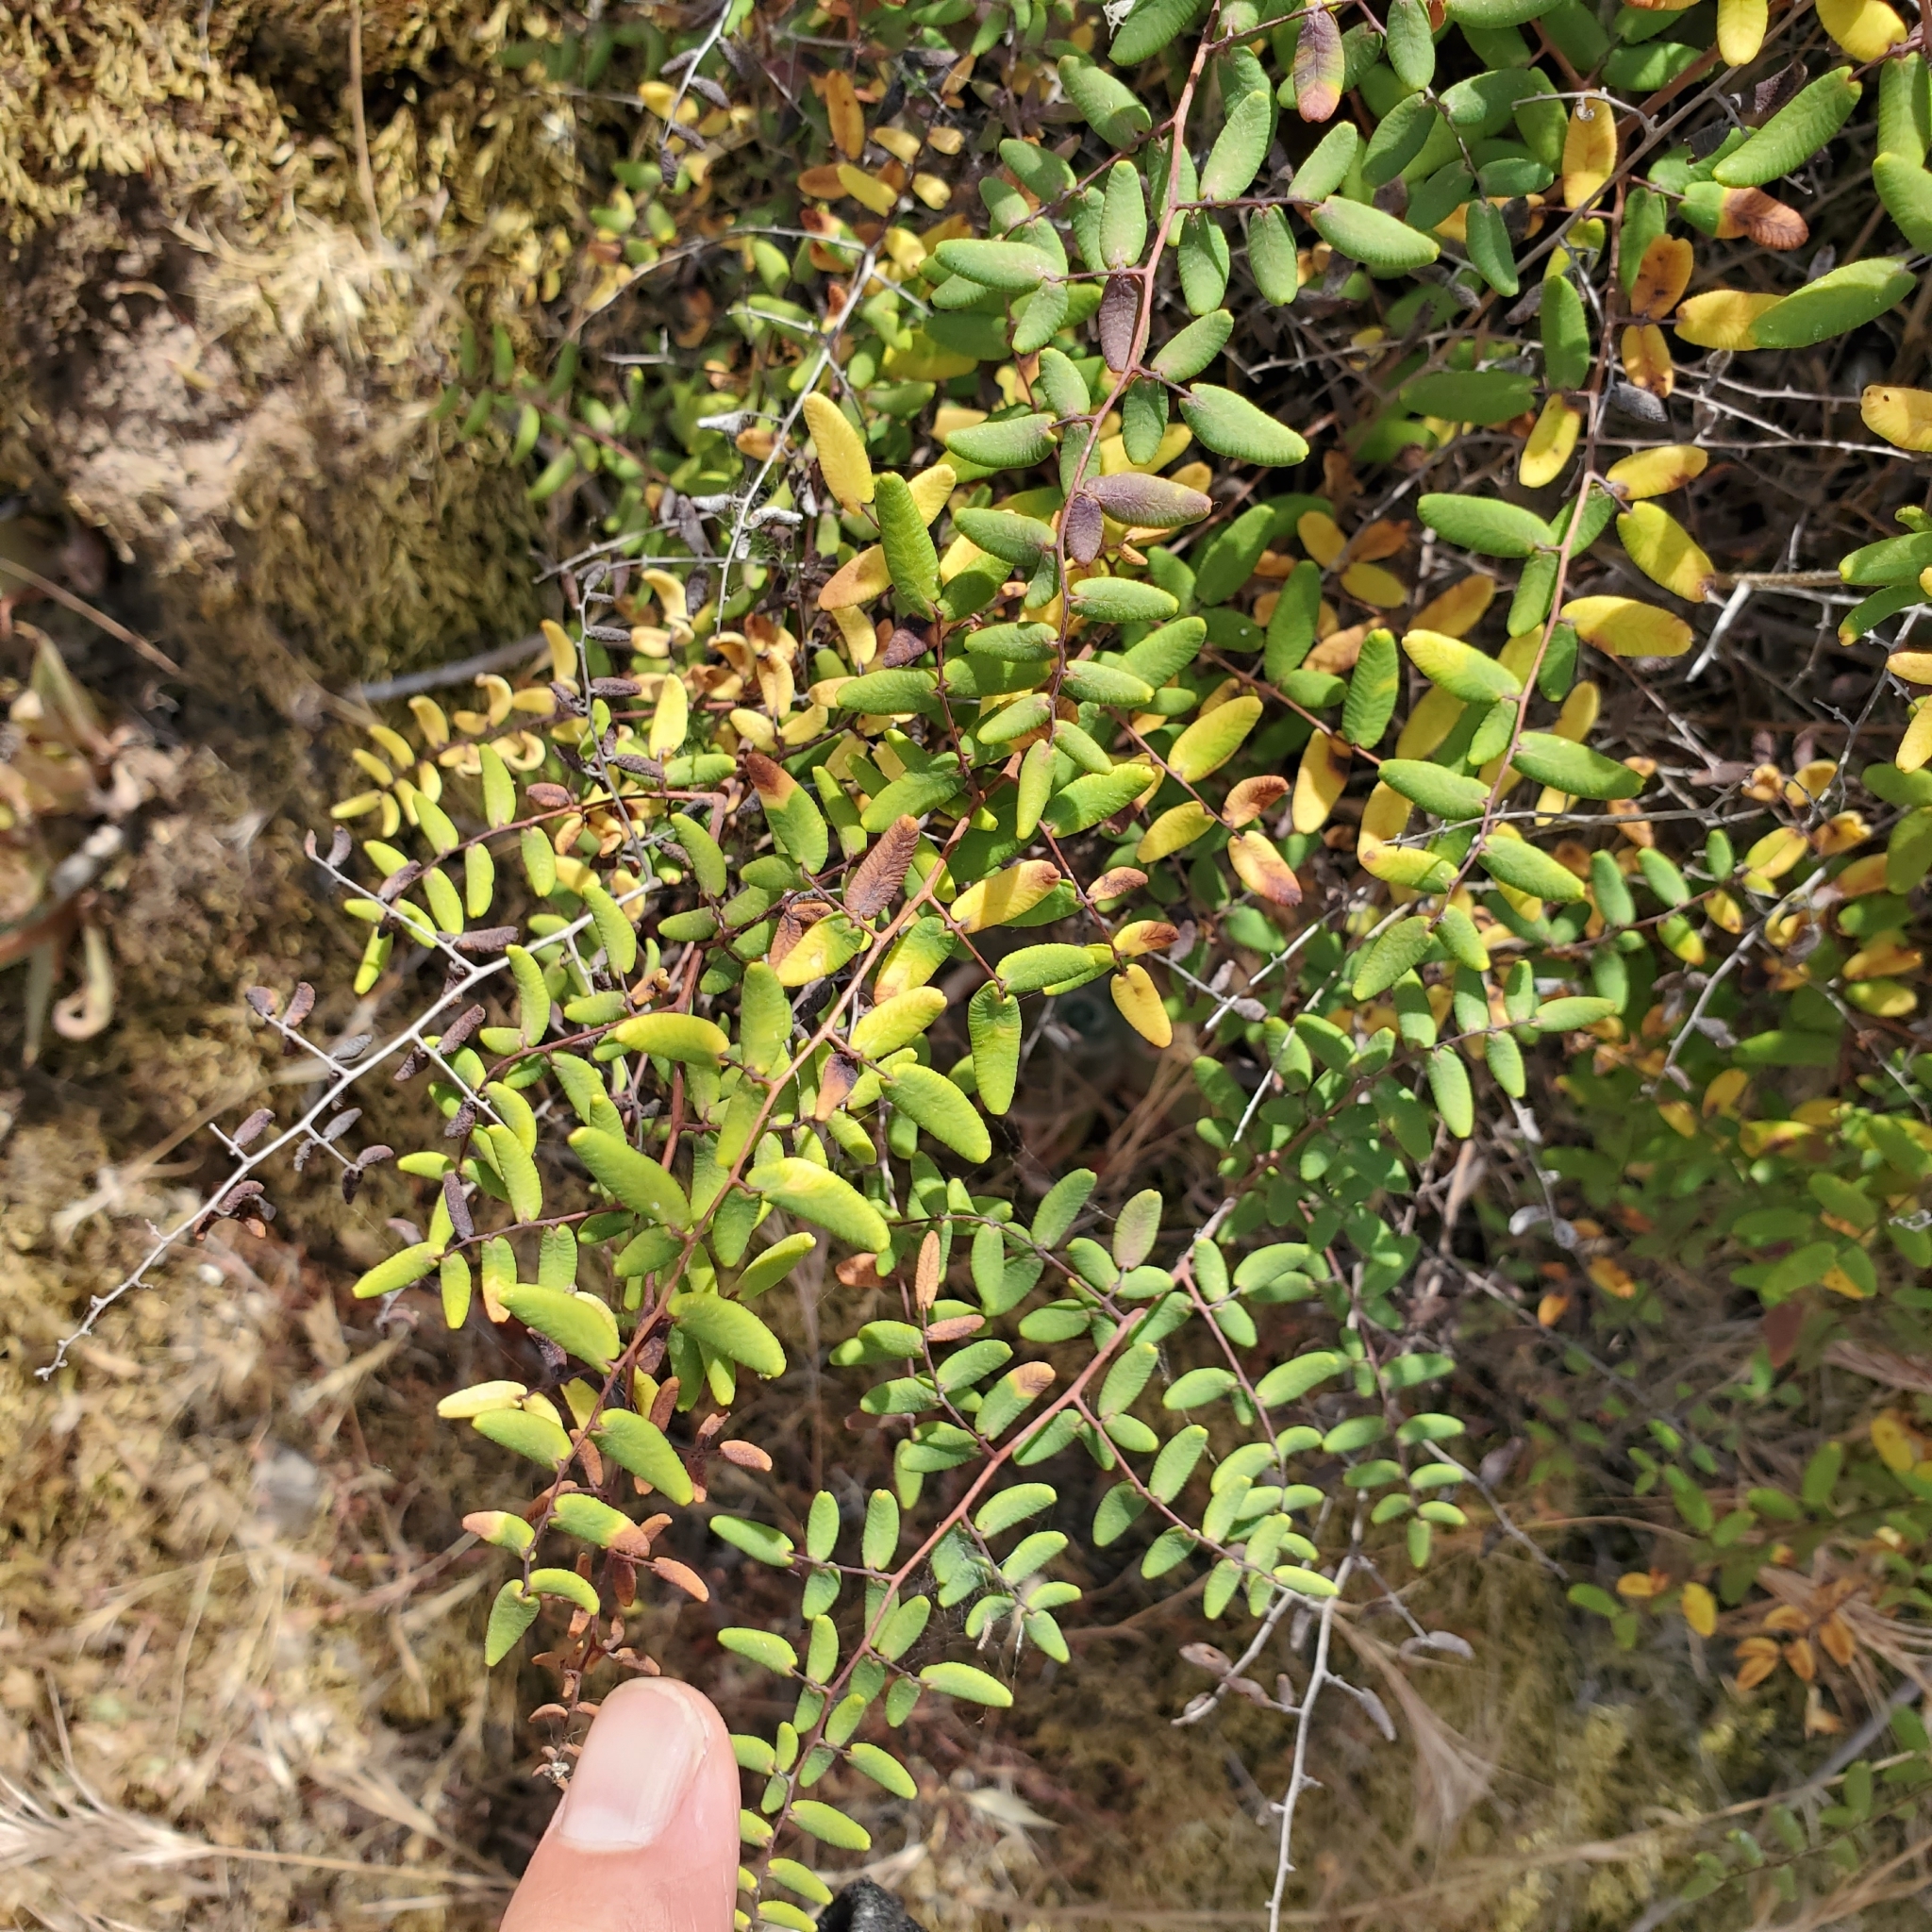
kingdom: Plantae
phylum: Tracheophyta
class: Polypodiopsida
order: Polypodiales
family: Pteridaceae
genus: Pellaea
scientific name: Pellaea andromedifolia
